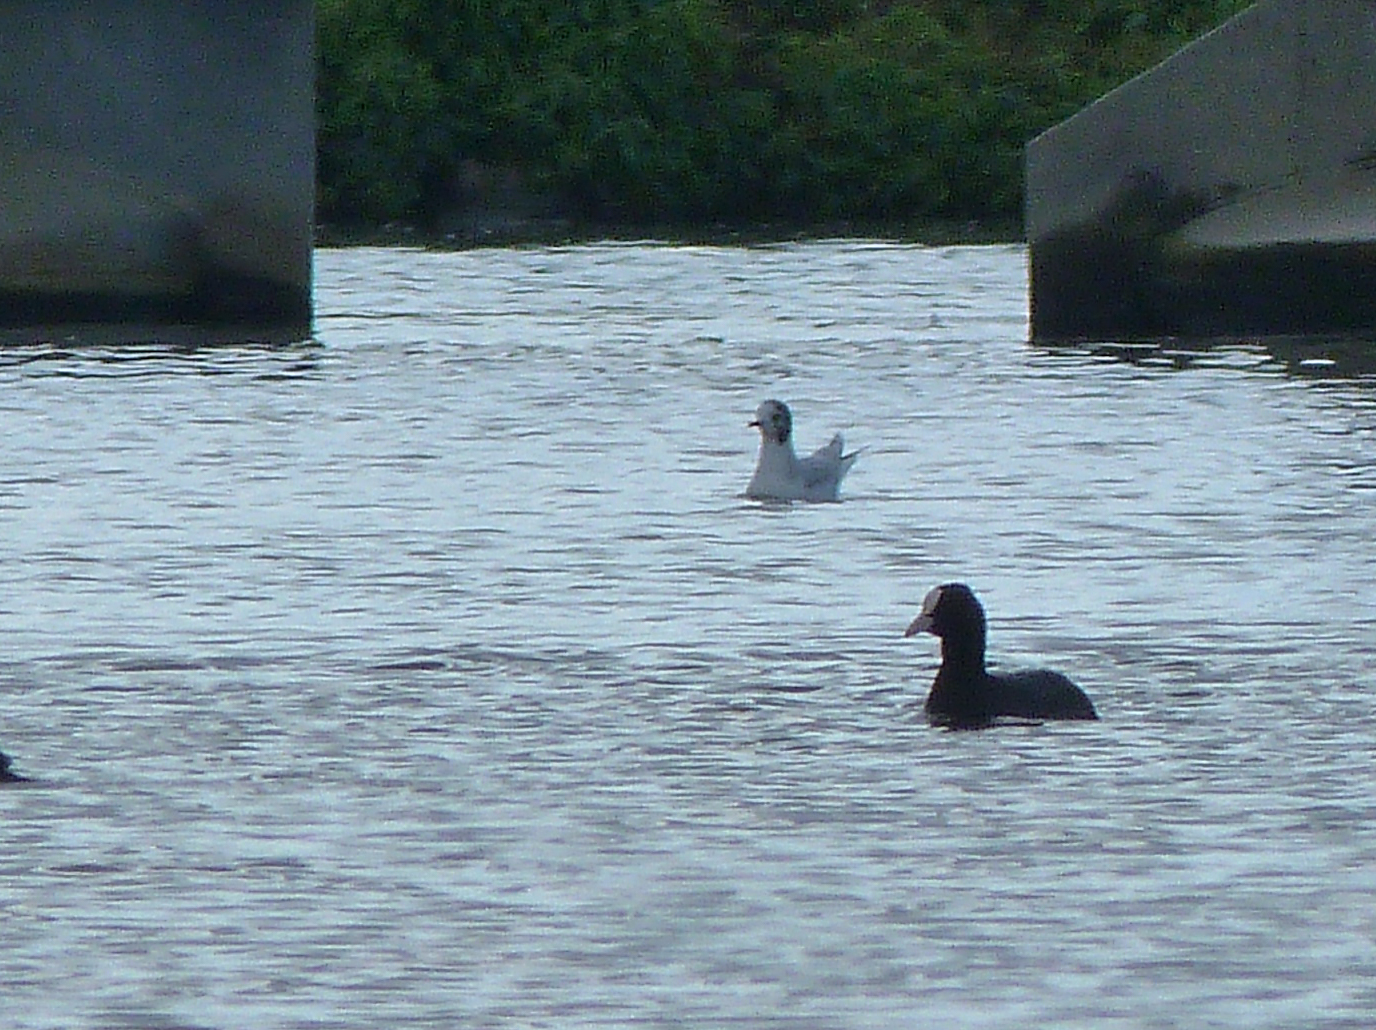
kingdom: Animalia
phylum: Chordata
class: Aves
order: Charadriiformes
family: Laridae
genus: Hydrocoloeus
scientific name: Hydrocoloeus minutus
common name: Little gull
